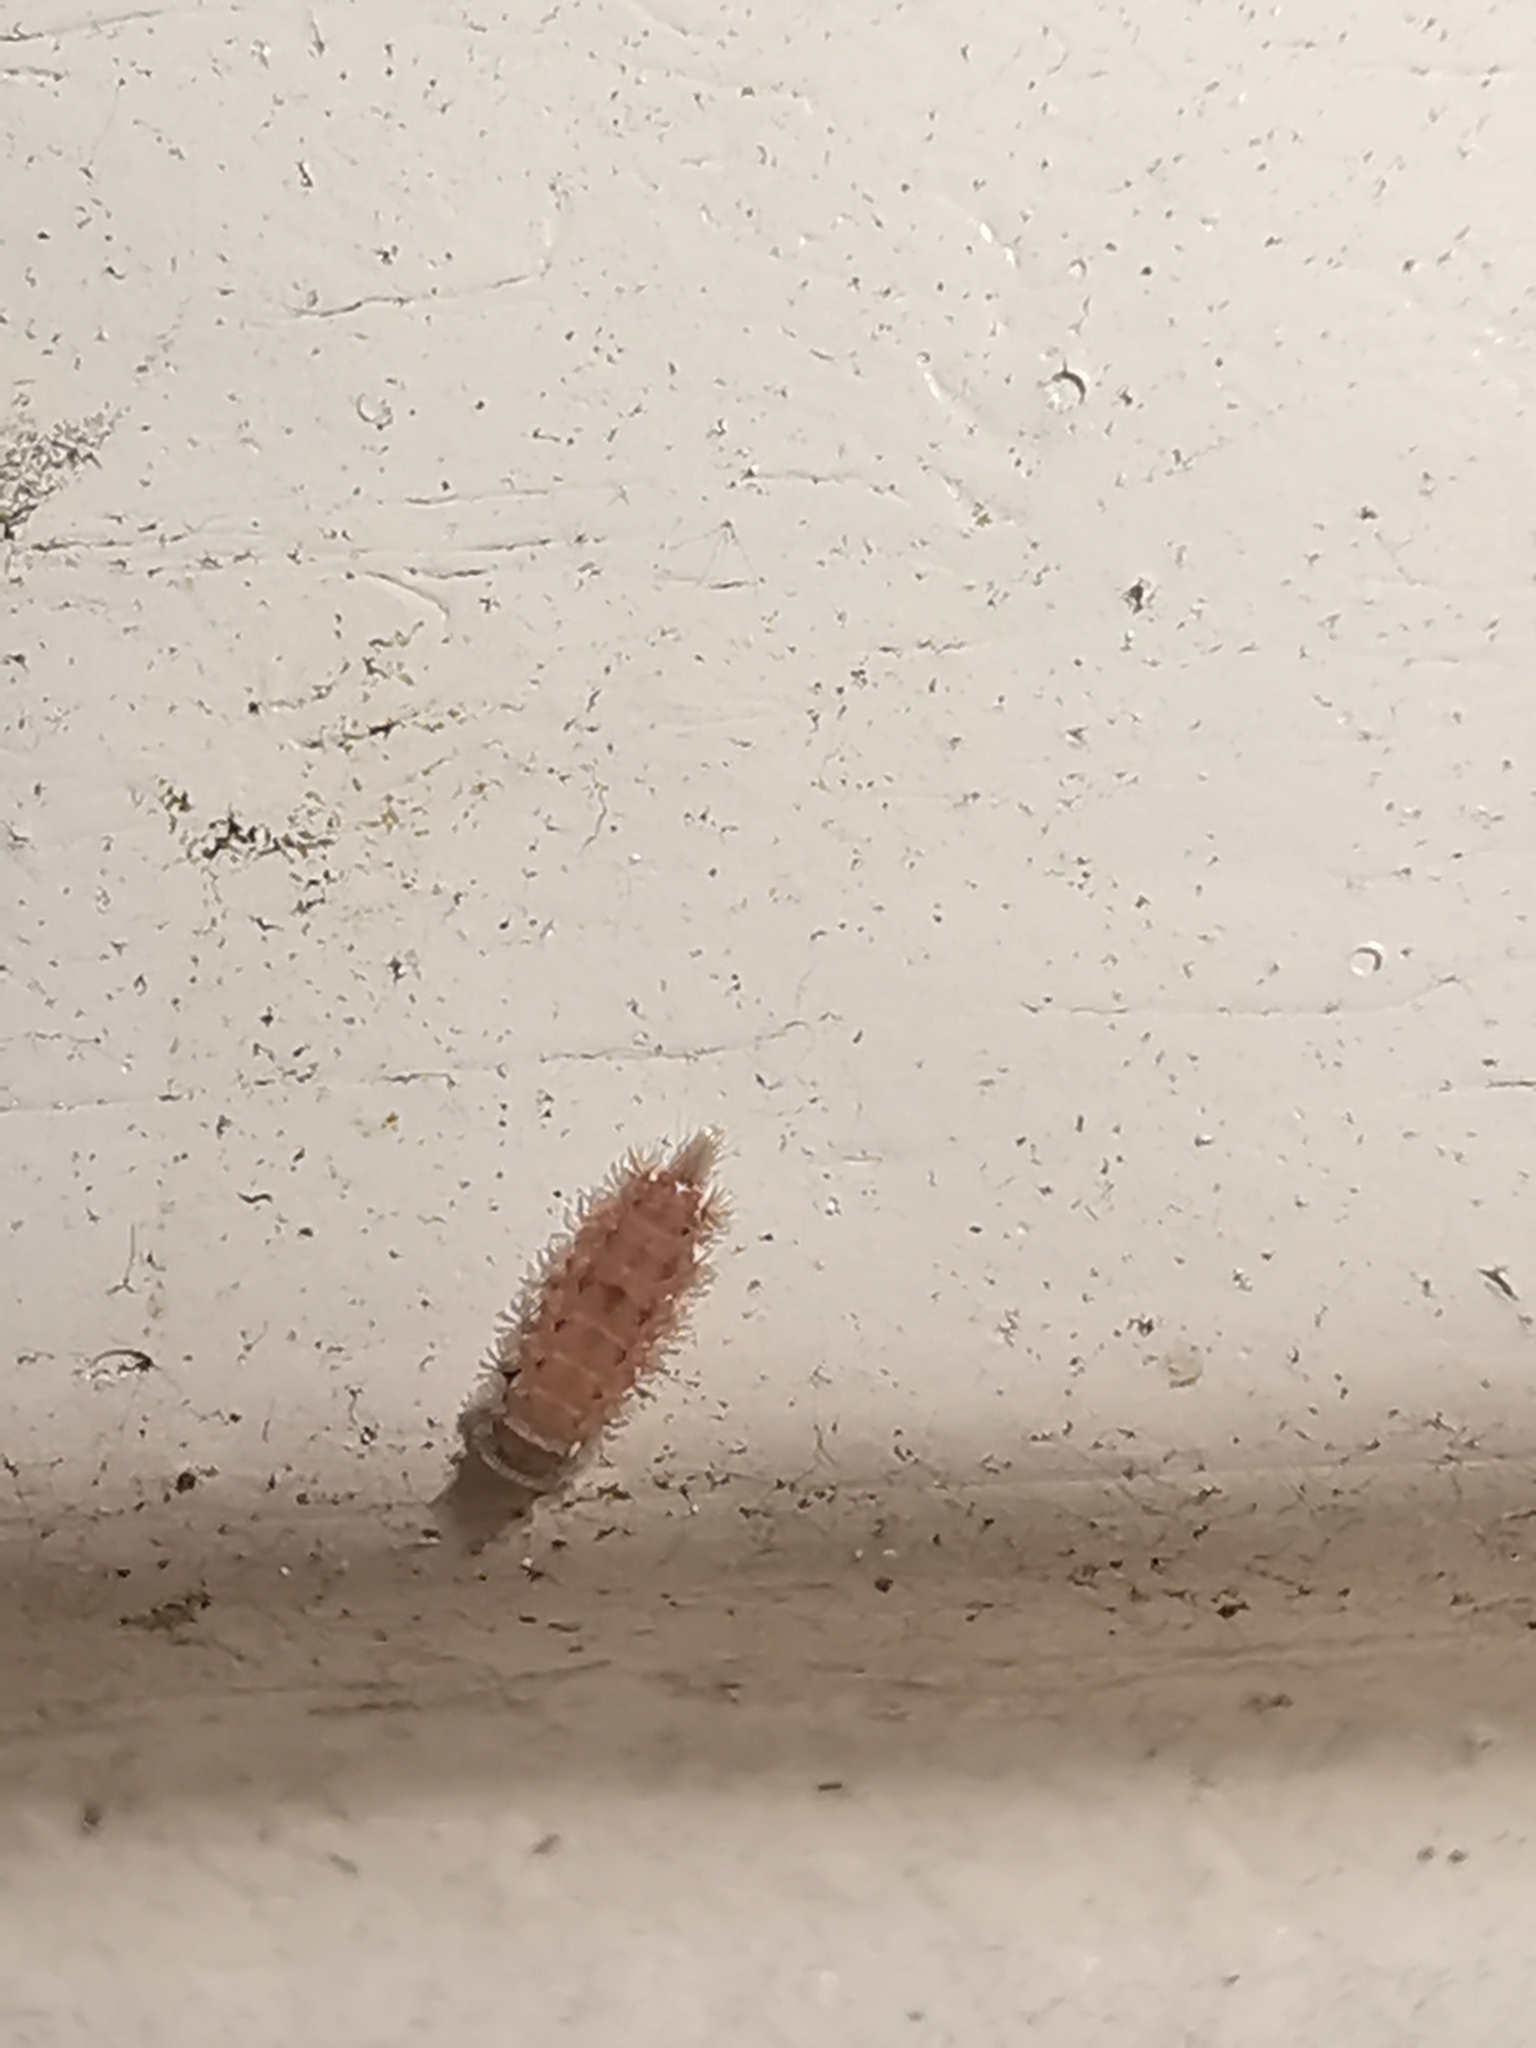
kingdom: Animalia
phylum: Arthropoda
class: Diplopoda
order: Polyxenida
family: Polyxenidae
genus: Polyxenus
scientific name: Polyxenus lagurus
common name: Bristly millipede
